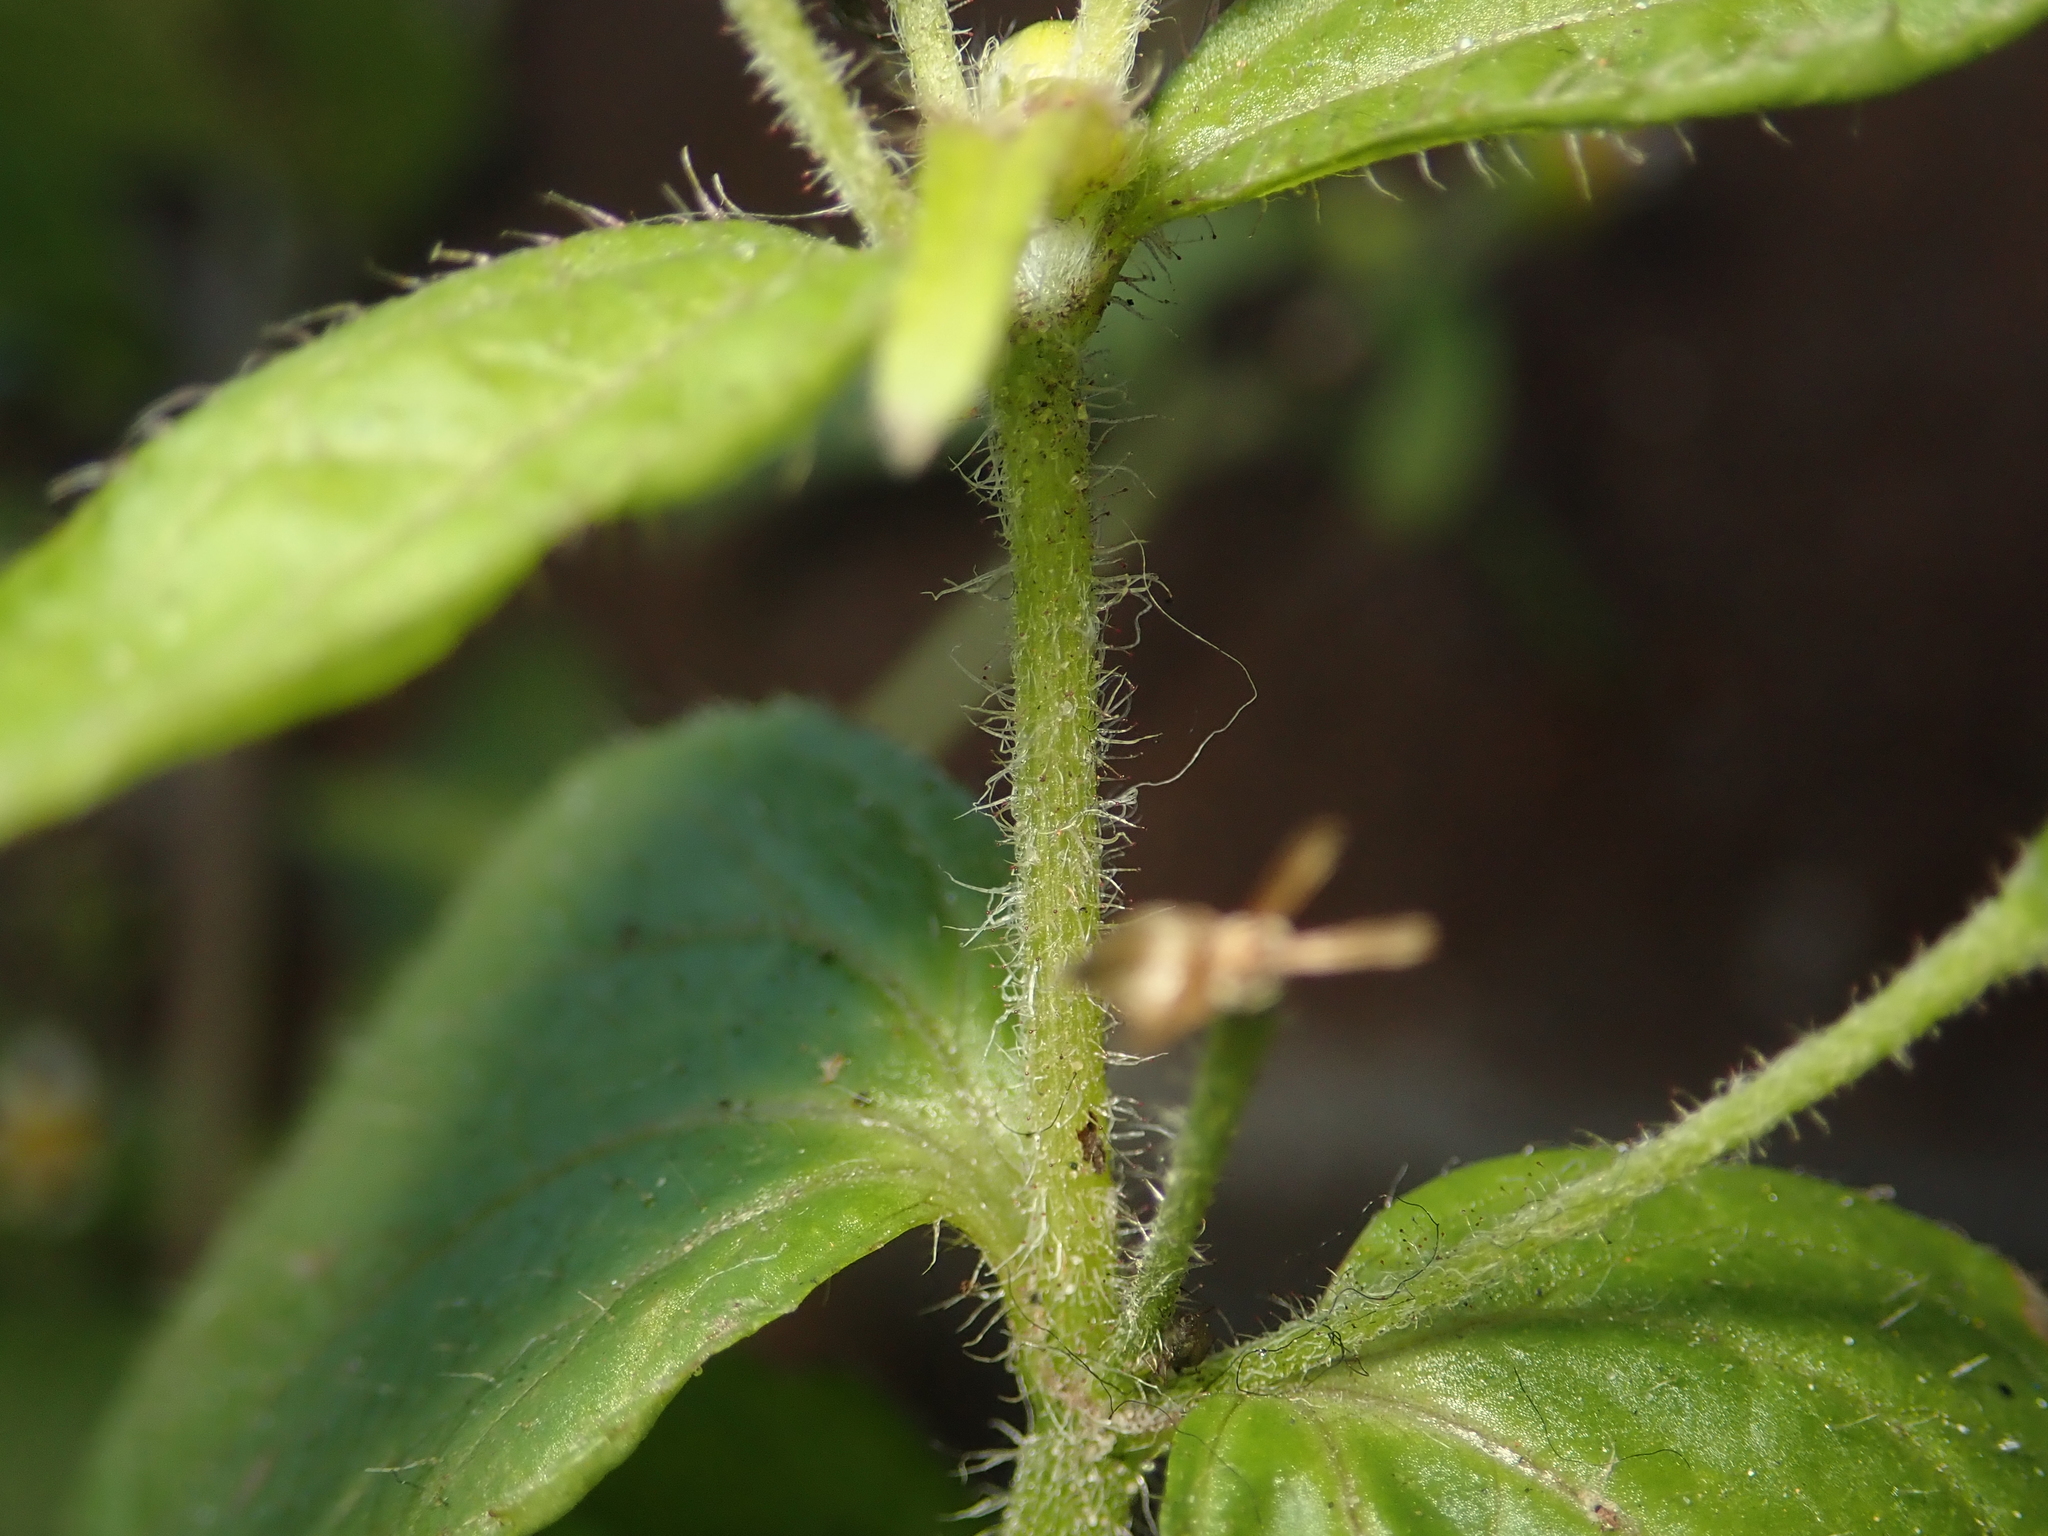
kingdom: Plantae
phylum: Tracheophyta
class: Magnoliopsida
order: Asterales
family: Asteraceae
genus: Galinsoga
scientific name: Galinsoga quadriradiata
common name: Shaggy soldier
